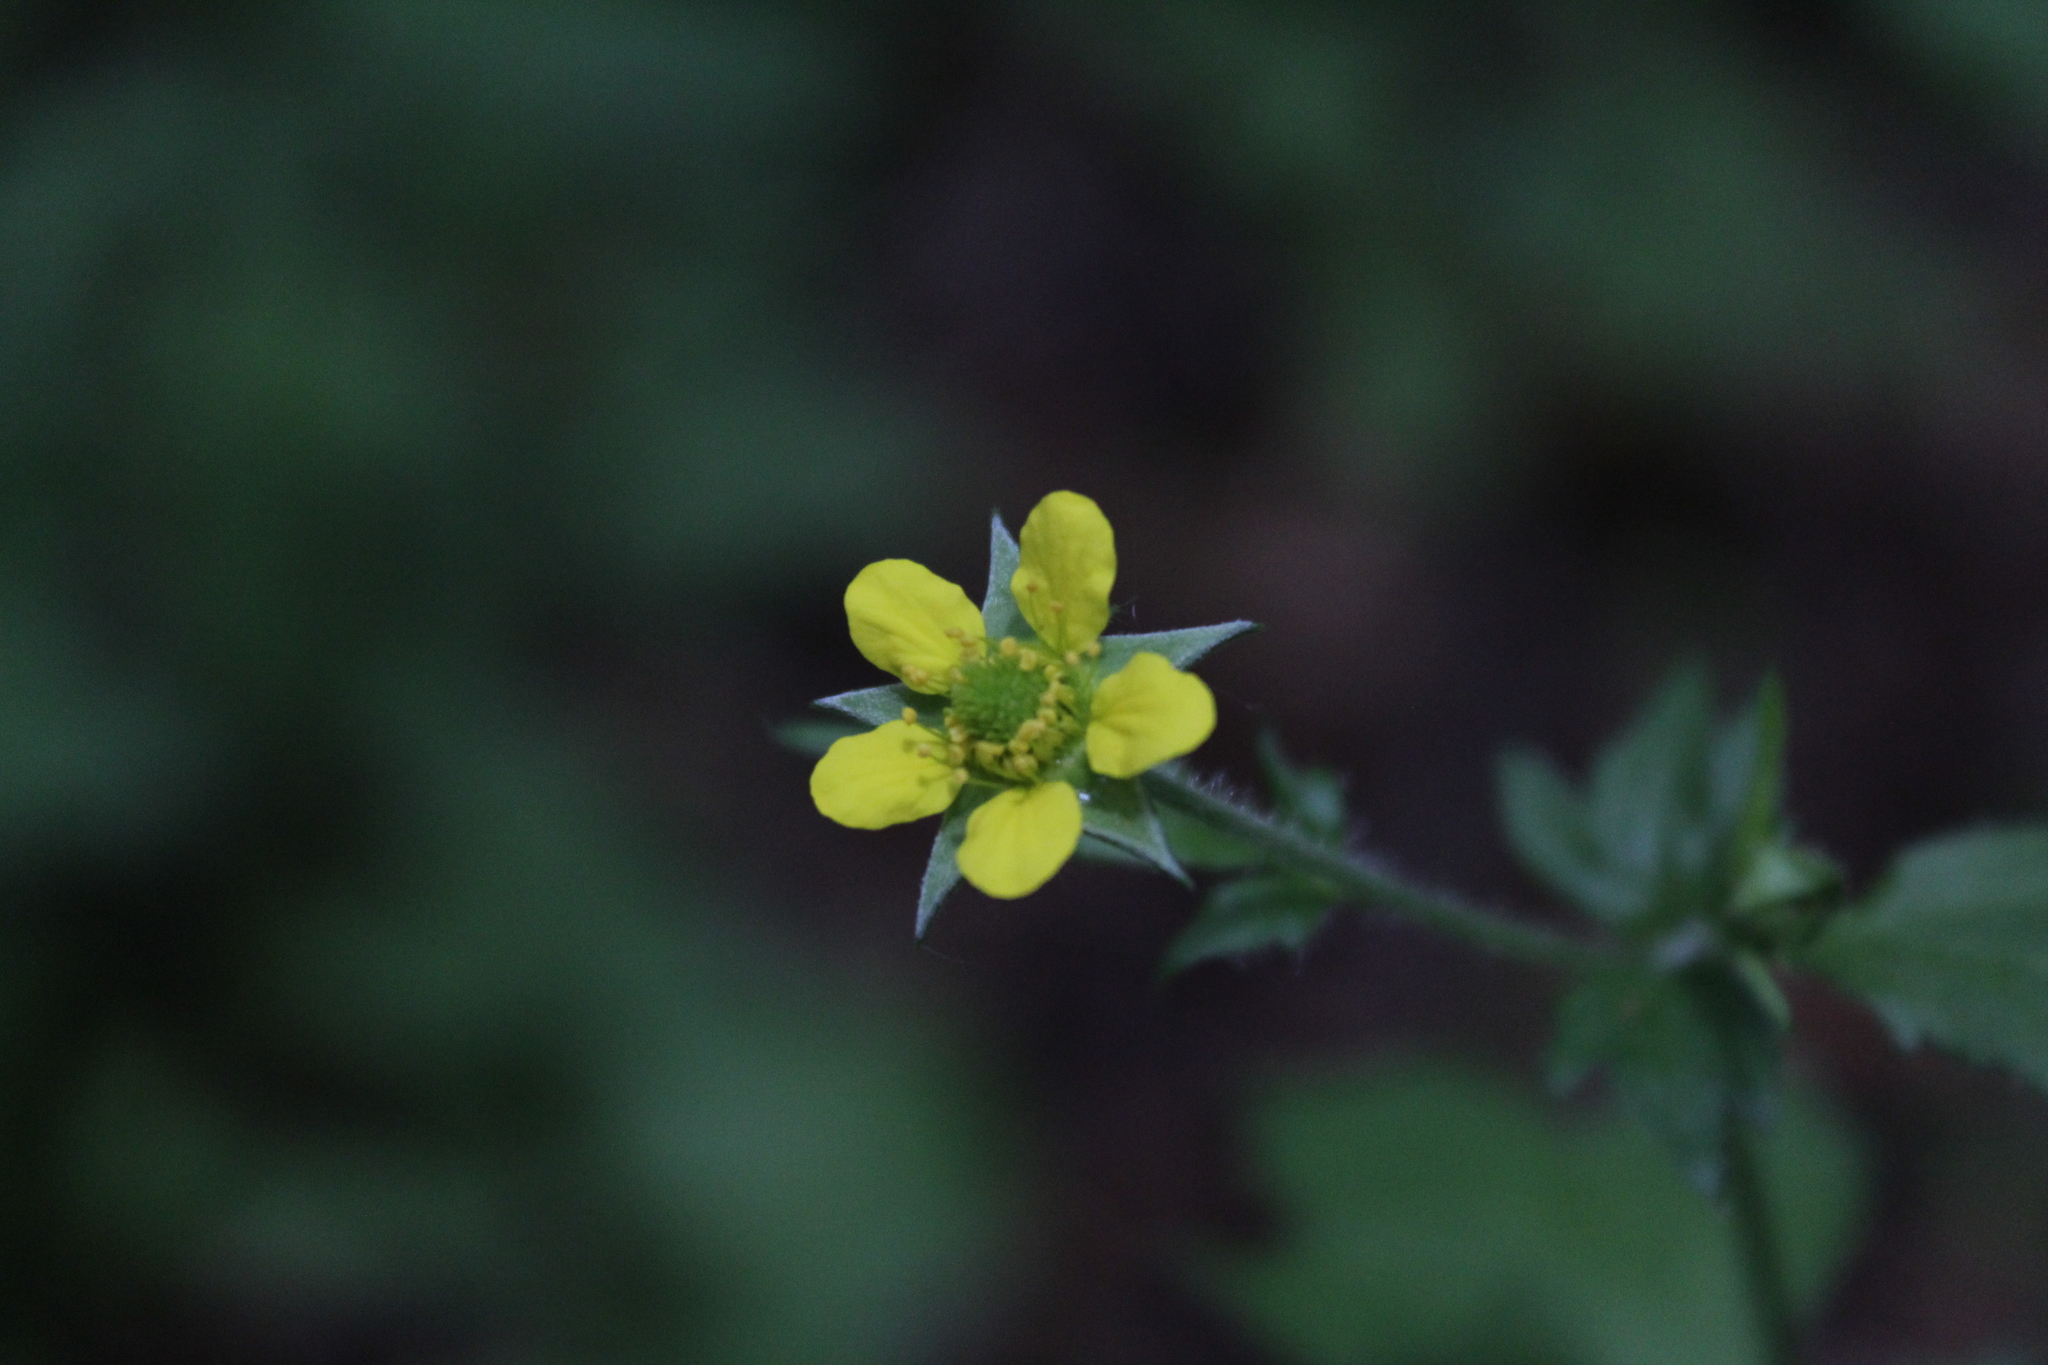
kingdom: Plantae
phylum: Tracheophyta
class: Magnoliopsida
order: Rosales
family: Rosaceae
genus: Geum
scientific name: Geum urbanum
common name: Wood avens
